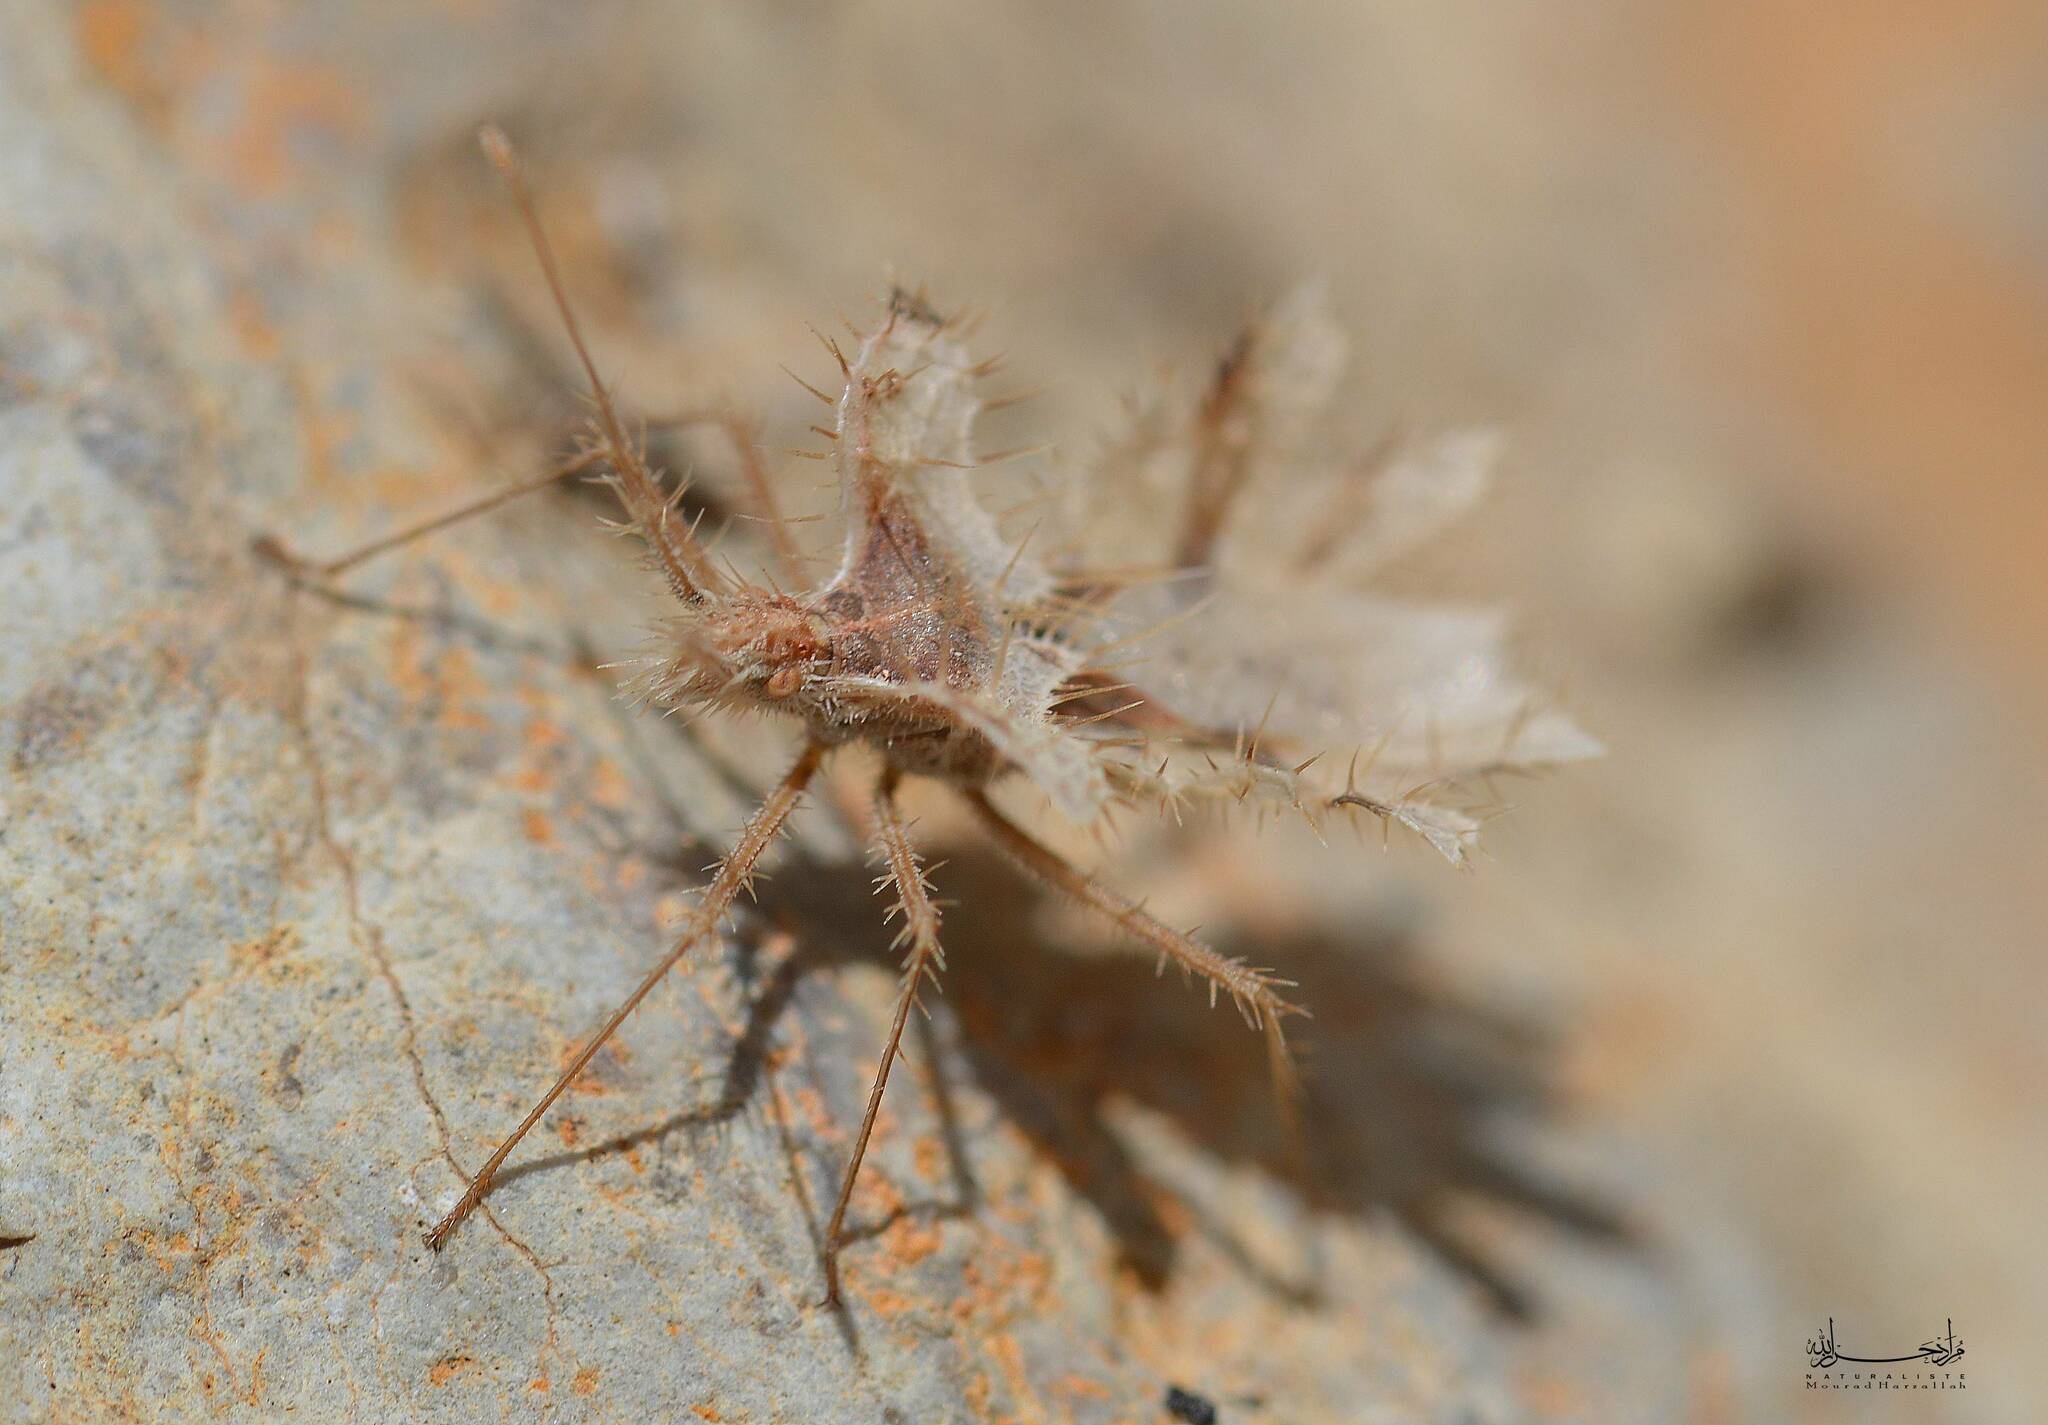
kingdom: Animalia
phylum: Arthropoda
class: Insecta
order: Hemiptera
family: Coreidae
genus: Phyllomorpha
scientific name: Phyllomorpha laciniata
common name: Golden egg bug
